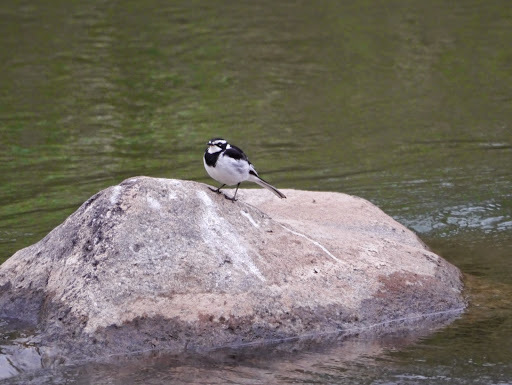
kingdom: Animalia
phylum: Chordata
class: Aves
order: Passeriformes
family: Motacillidae
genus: Motacilla
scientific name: Motacilla aguimp
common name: African pied wagtail
